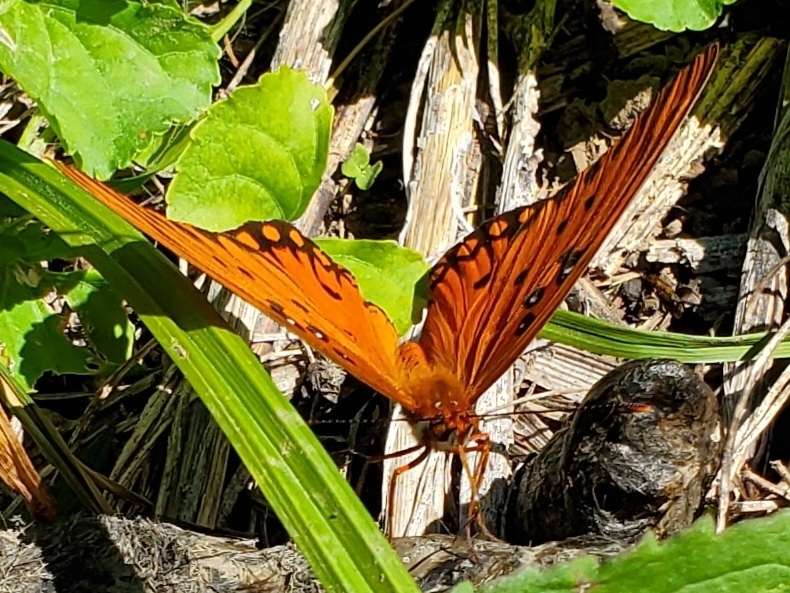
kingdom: Animalia
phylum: Arthropoda
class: Insecta
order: Lepidoptera
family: Nymphalidae
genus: Dione
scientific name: Dione vanillae
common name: Gulf fritillary
